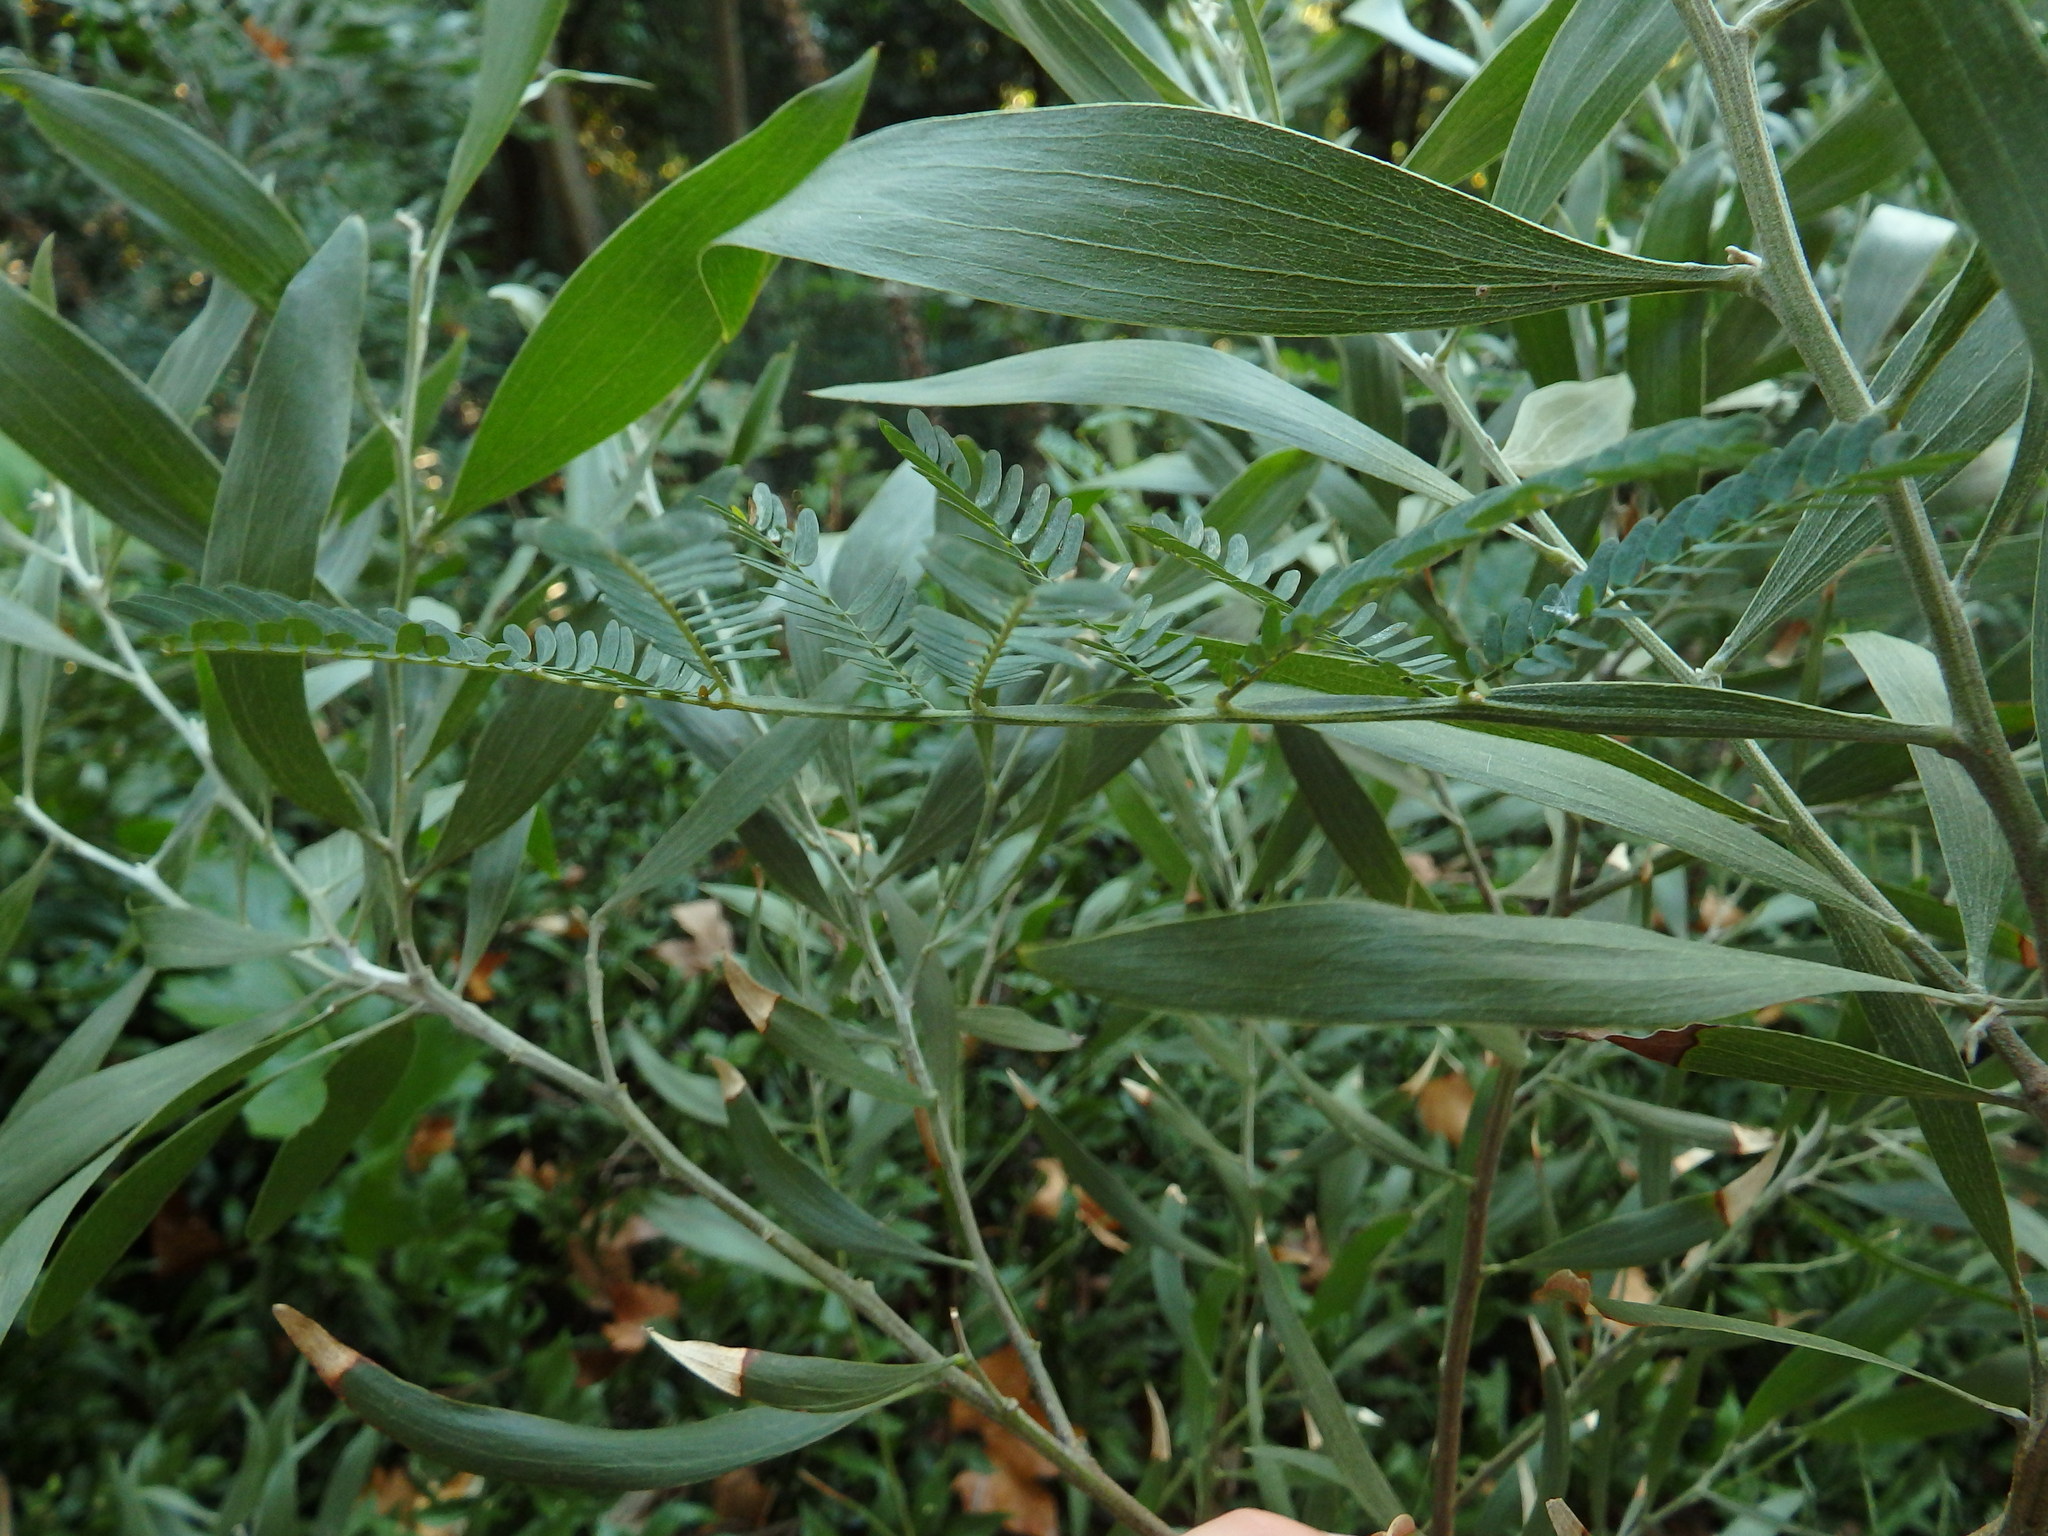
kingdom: Plantae
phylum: Tracheophyta
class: Magnoliopsida
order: Fabales
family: Fabaceae
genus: Acacia
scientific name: Acacia melanoxylon
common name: Blackwood
